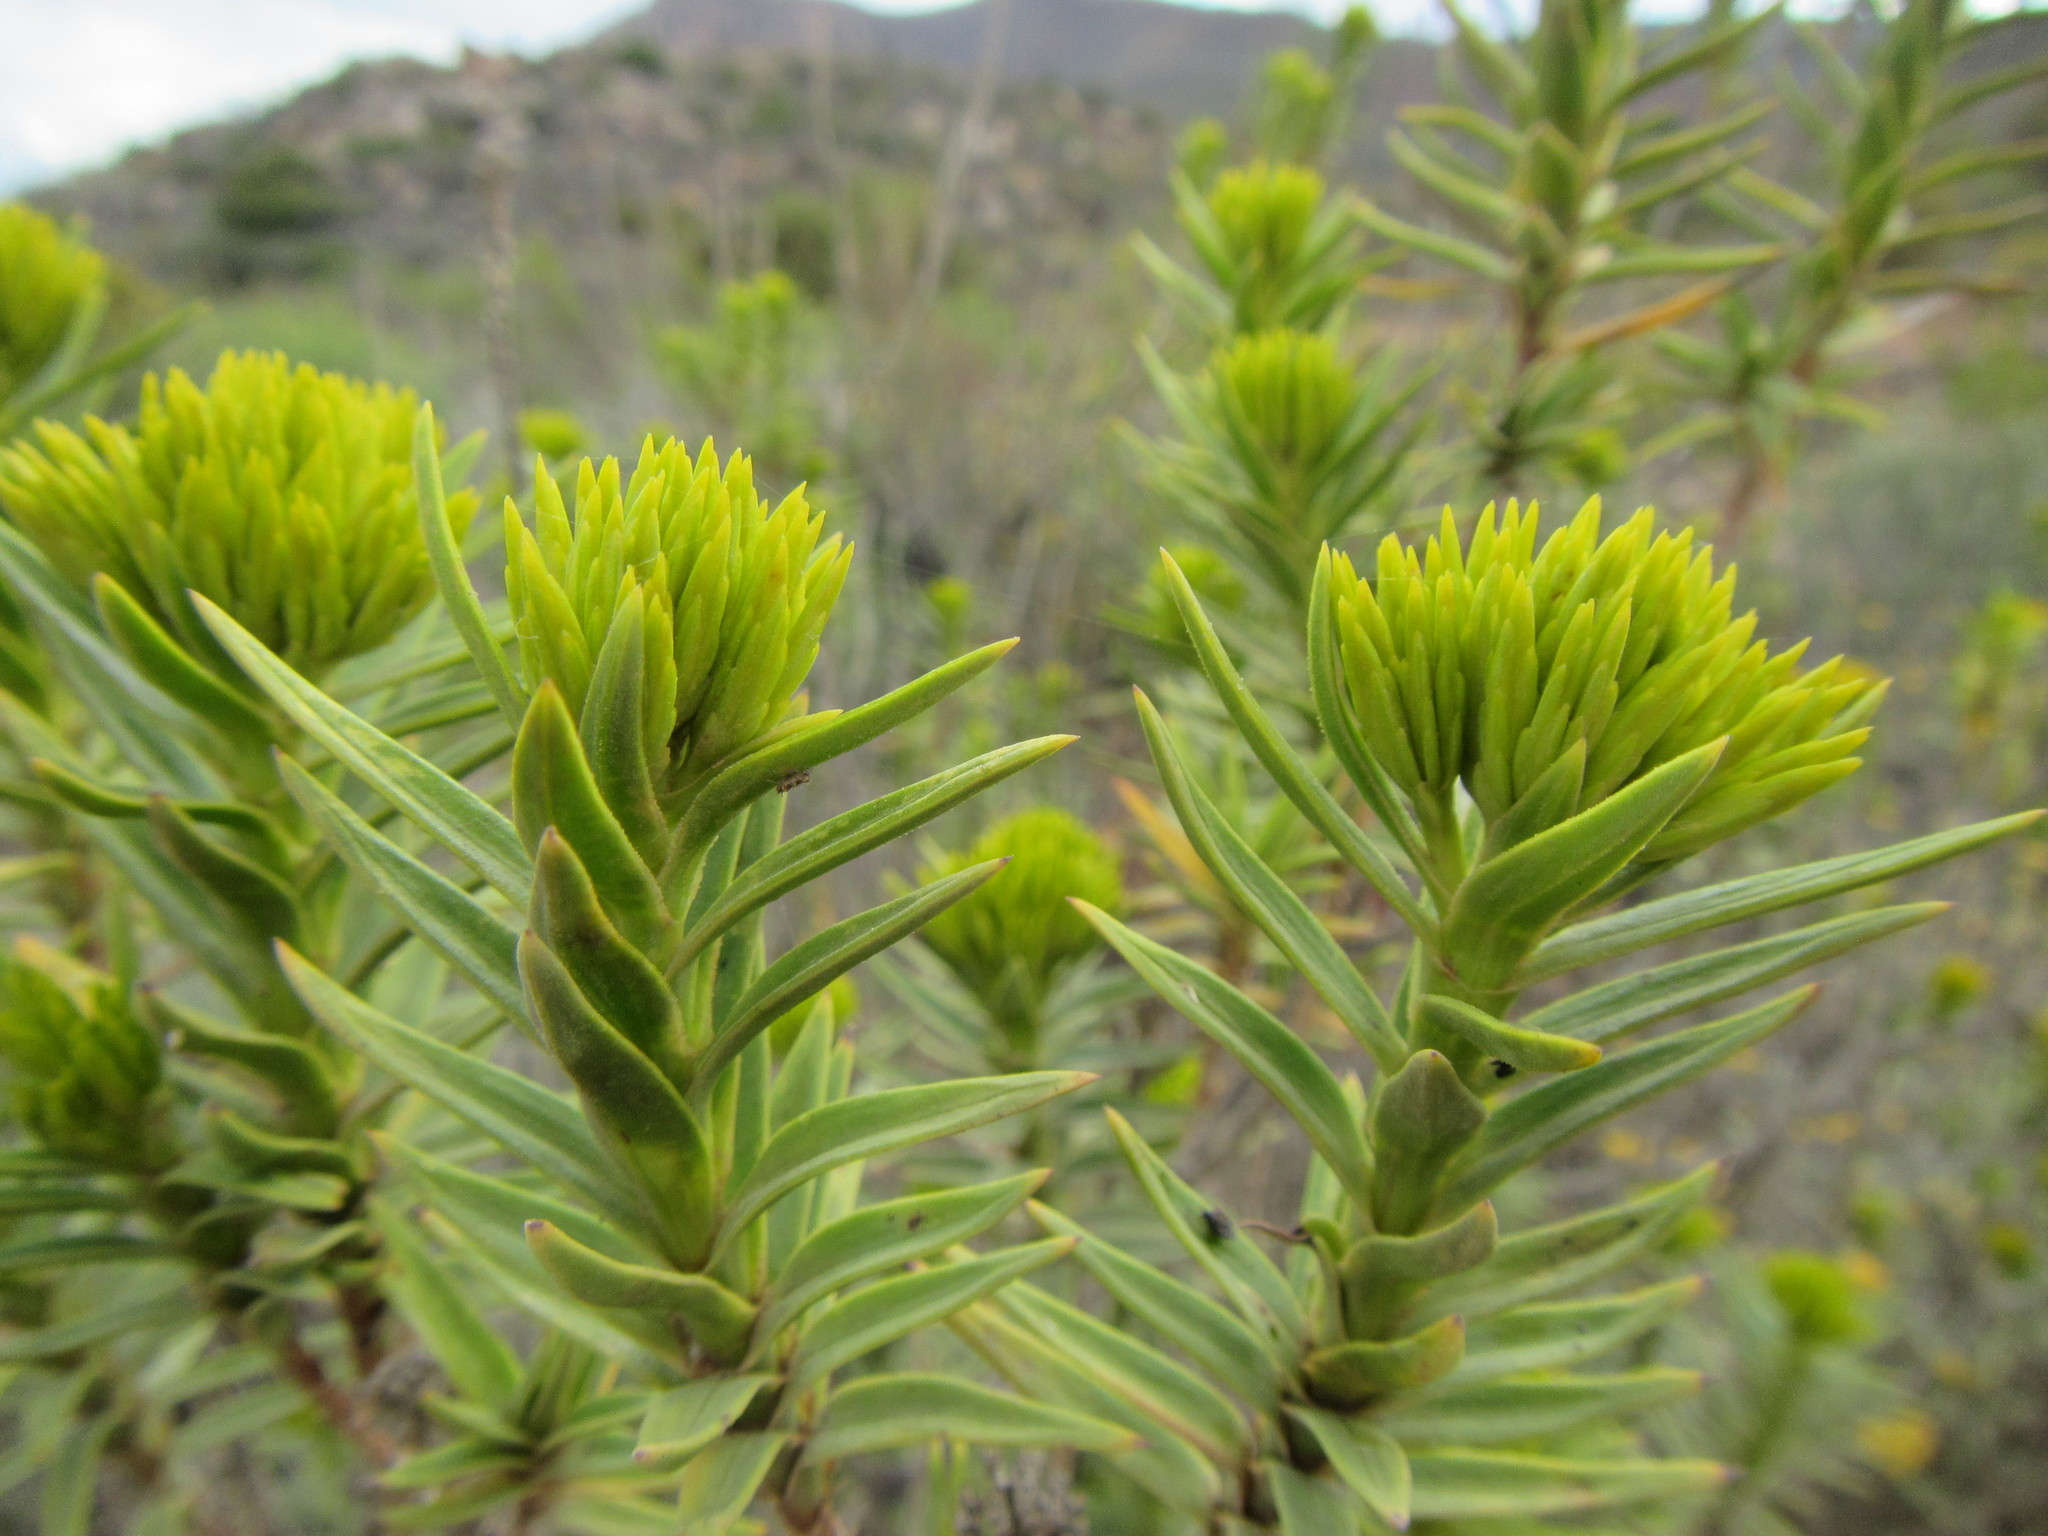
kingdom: Plantae
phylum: Tracheophyta
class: Magnoliopsida
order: Asterales
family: Asteraceae
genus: Pteronia
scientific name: Pteronia fasciculata
